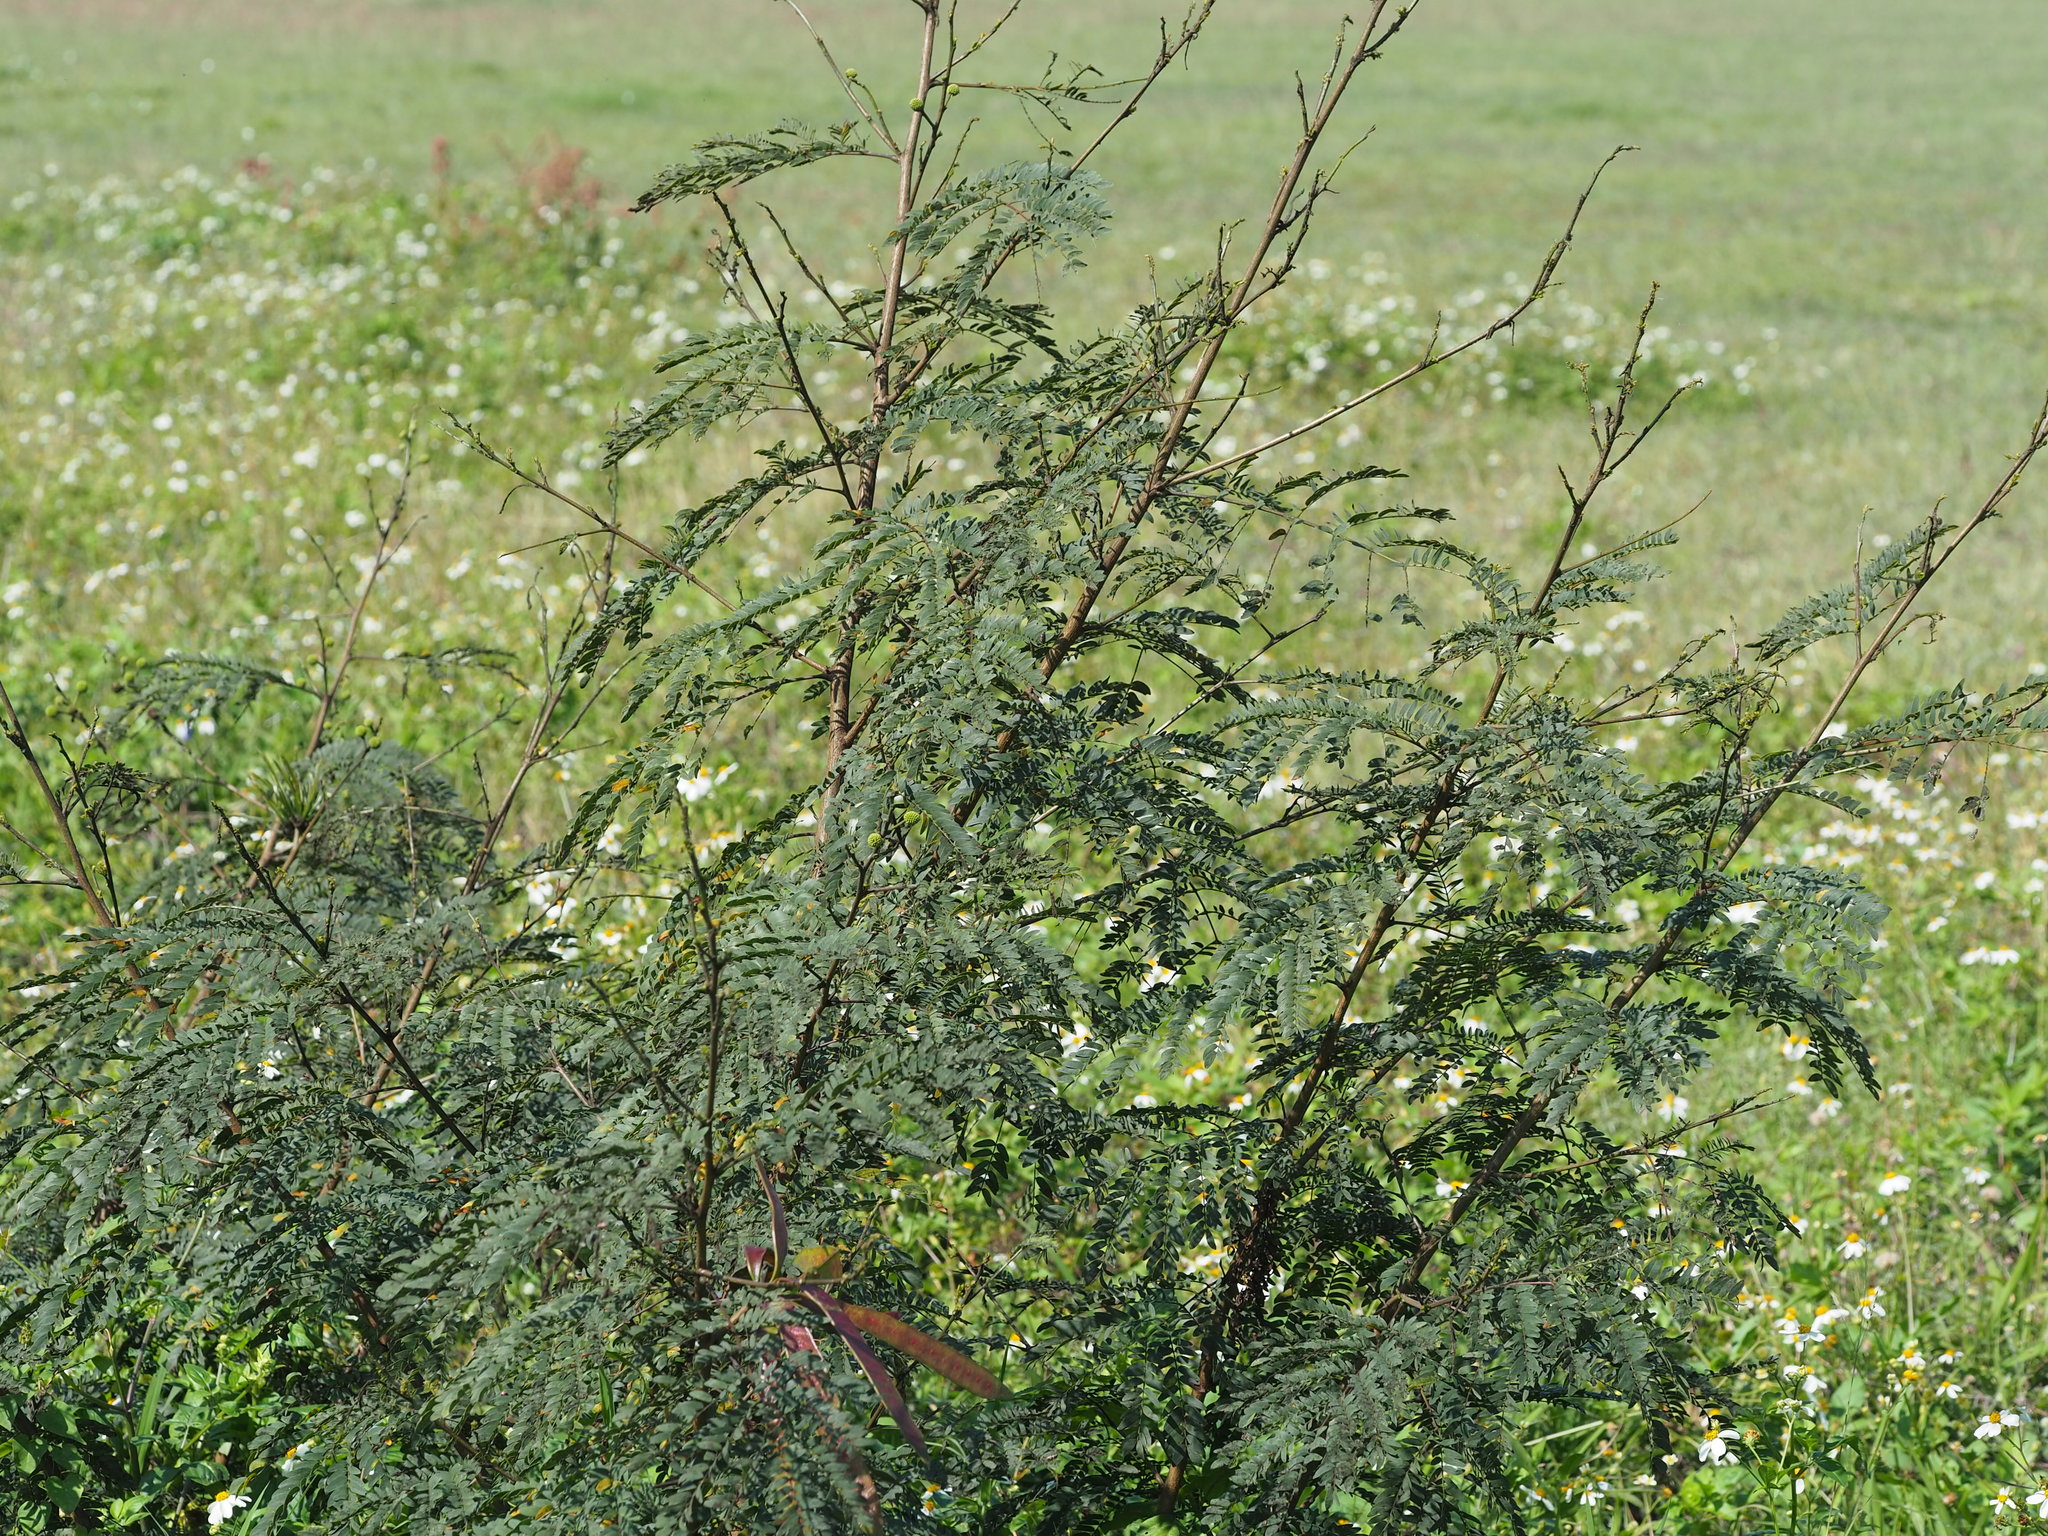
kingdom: Plantae
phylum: Tracheophyta
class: Magnoliopsida
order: Fabales
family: Fabaceae
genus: Leucaena
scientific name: Leucaena leucocephala
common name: White leadtree
